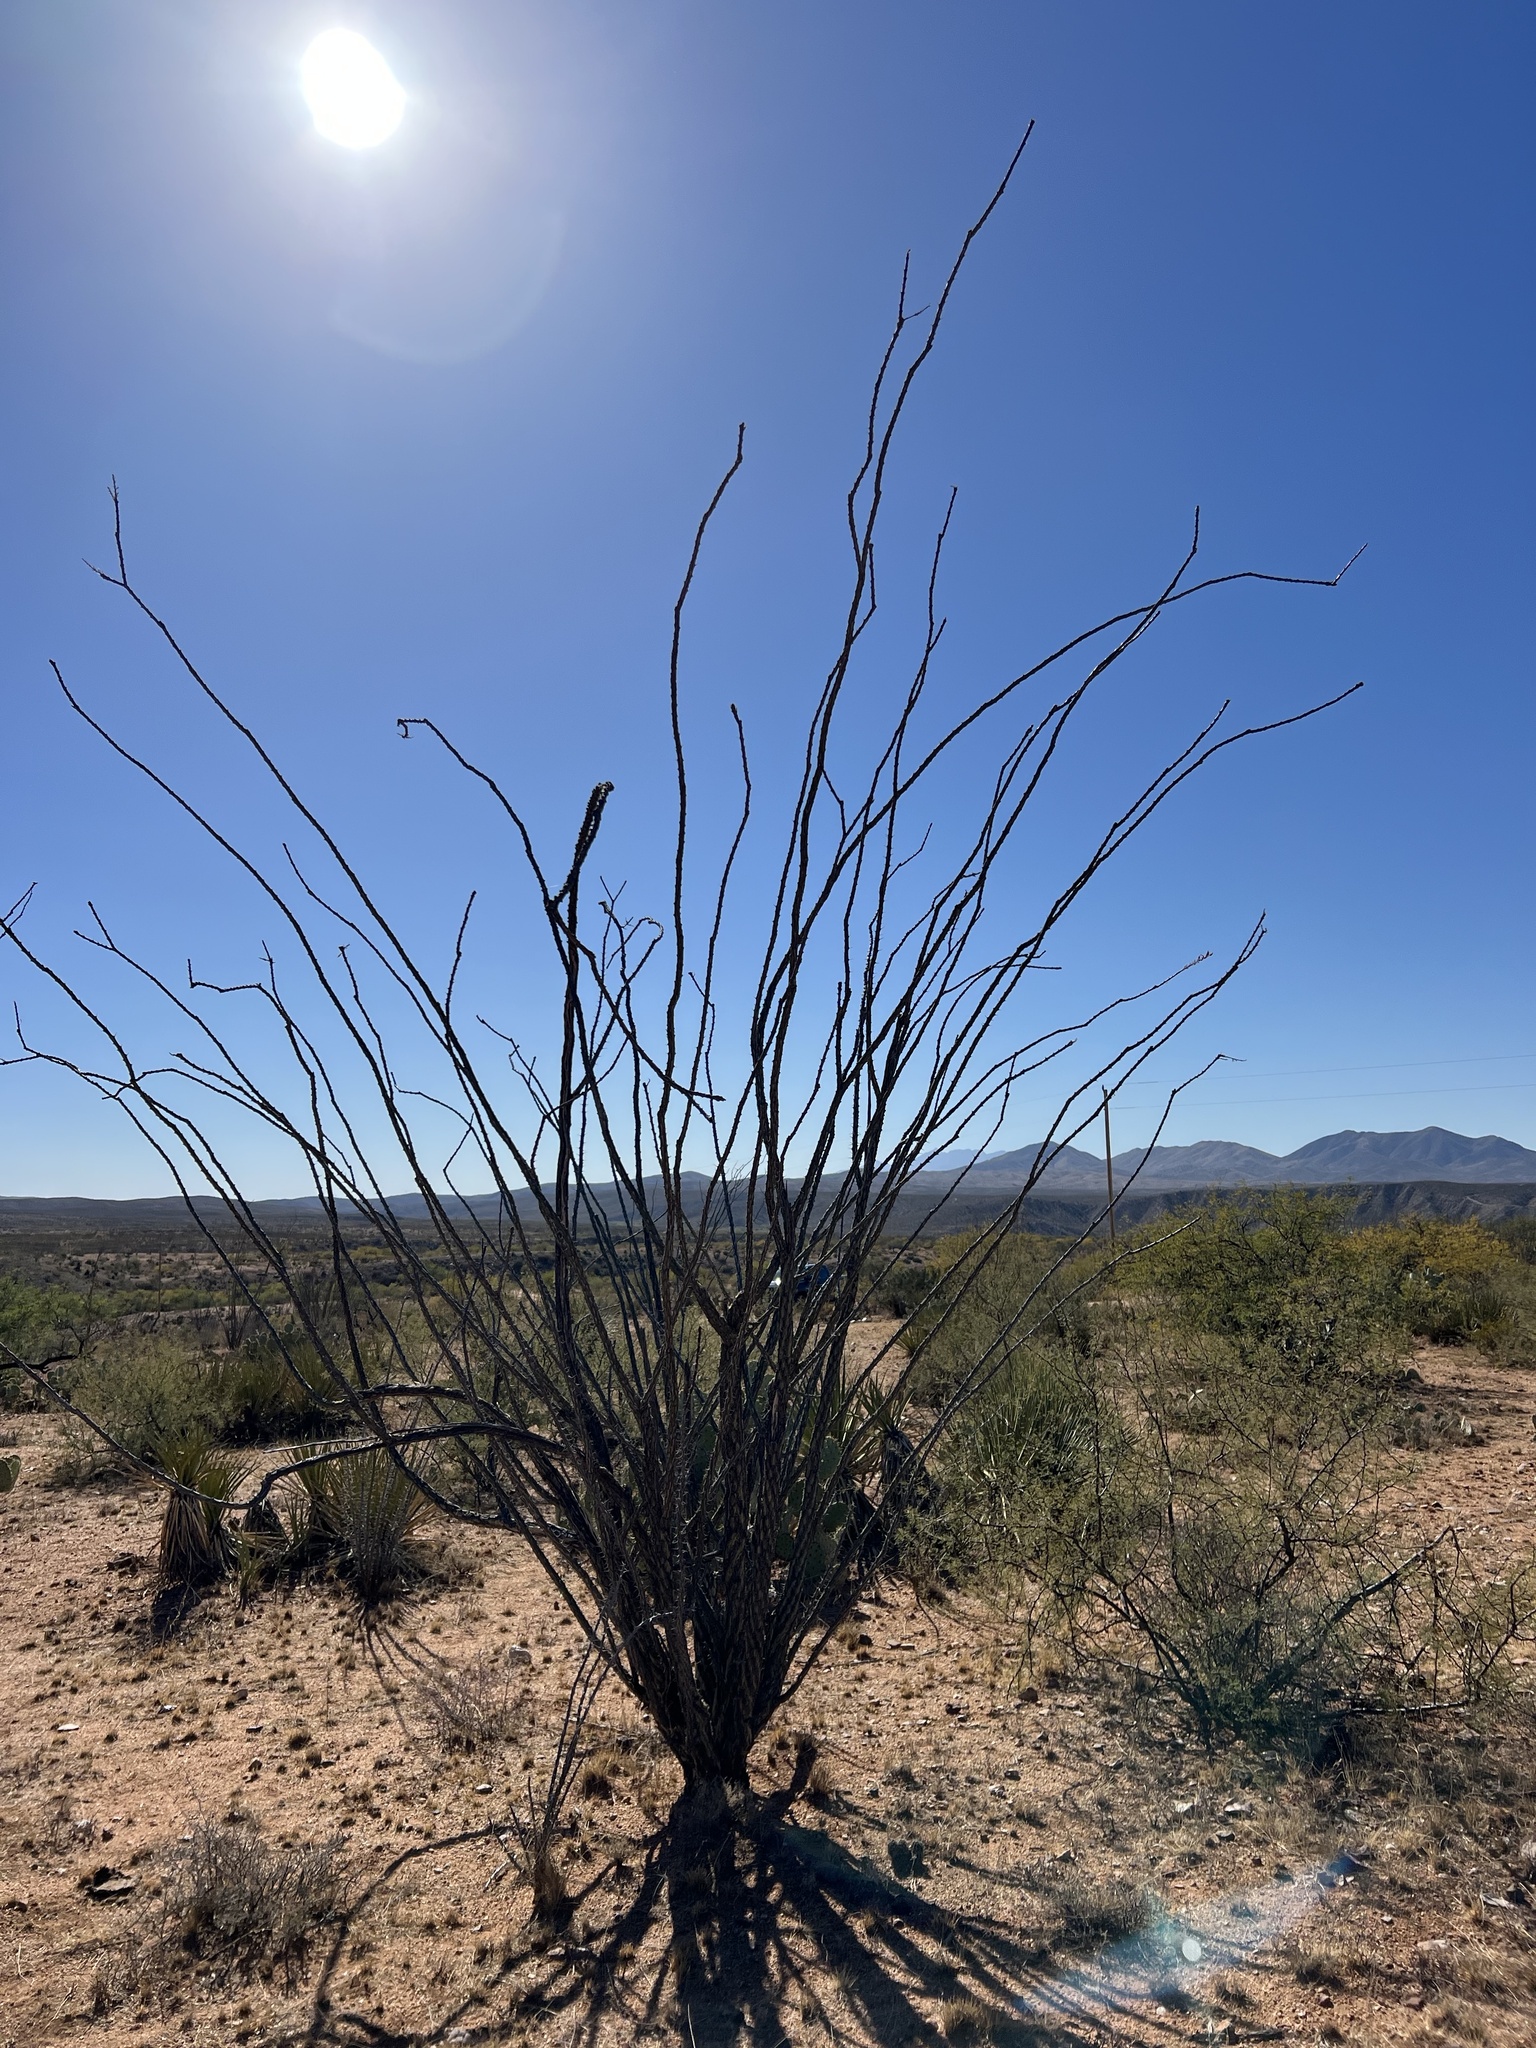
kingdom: Plantae
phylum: Tracheophyta
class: Magnoliopsida
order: Ericales
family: Fouquieriaceae
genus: Fouquieria
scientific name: Fouquieria splendens
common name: Vine-cactus
